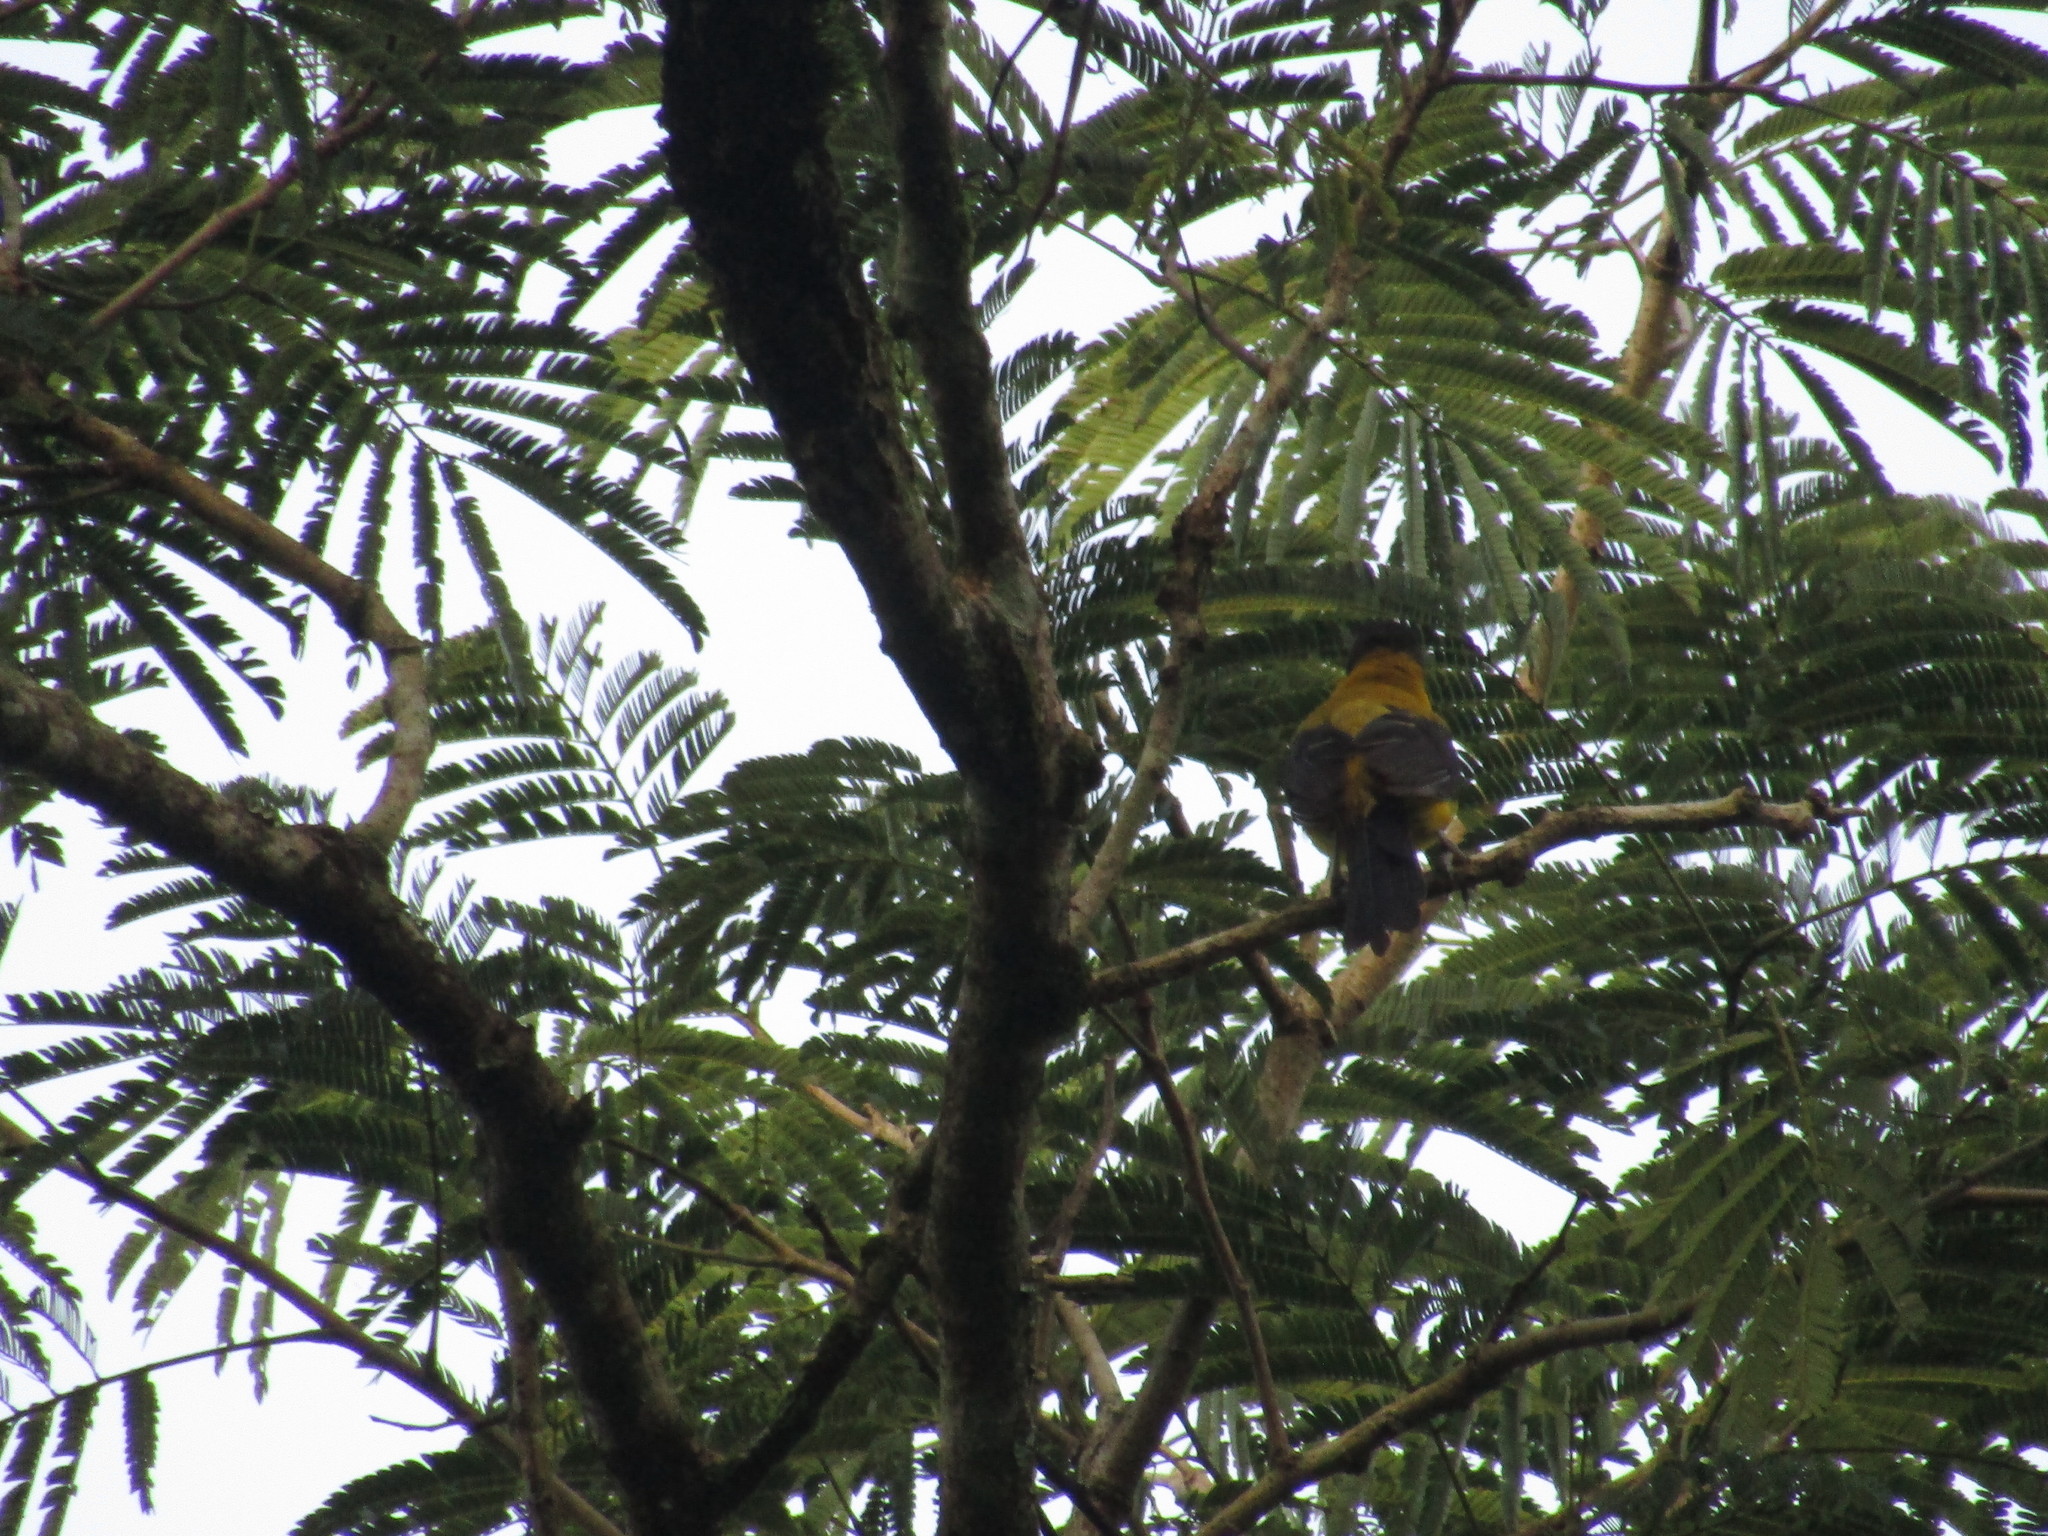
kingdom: Animalia
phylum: Chordata
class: Aves
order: Passeriformes
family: Icteridae
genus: Icterus
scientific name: Icterus graduacauda
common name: Audubon's oriole
